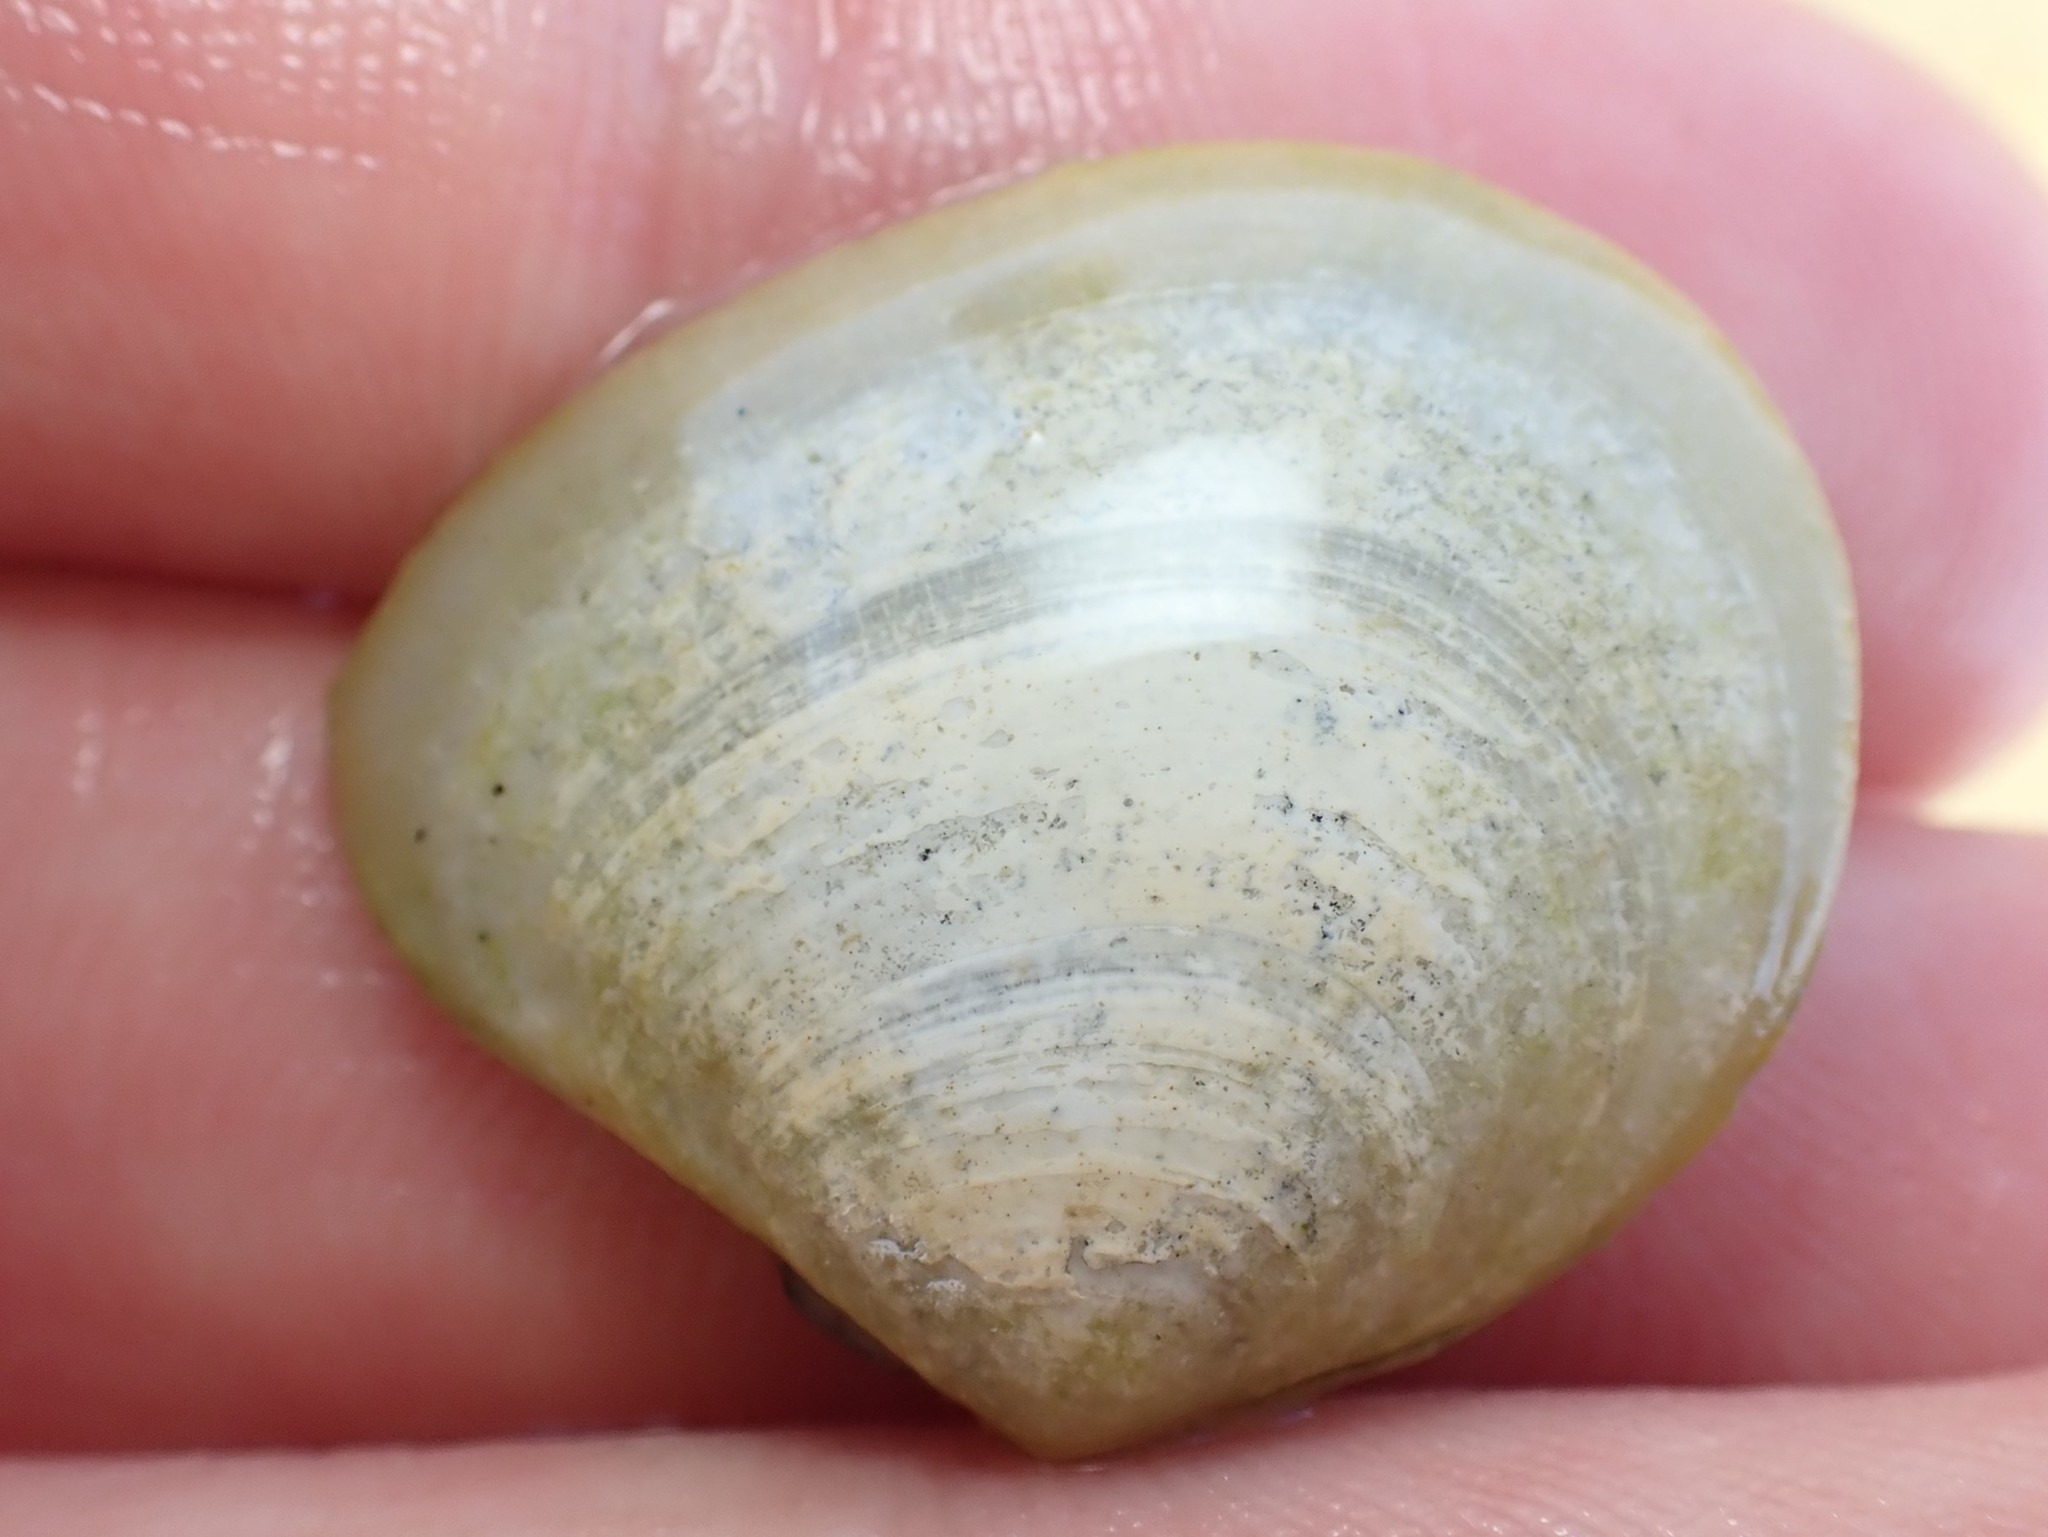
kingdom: Animalia
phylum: Mollusca
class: Bivalvia
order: Cardiida
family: Tellinidae
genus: Macomona
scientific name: Macomona liliana
